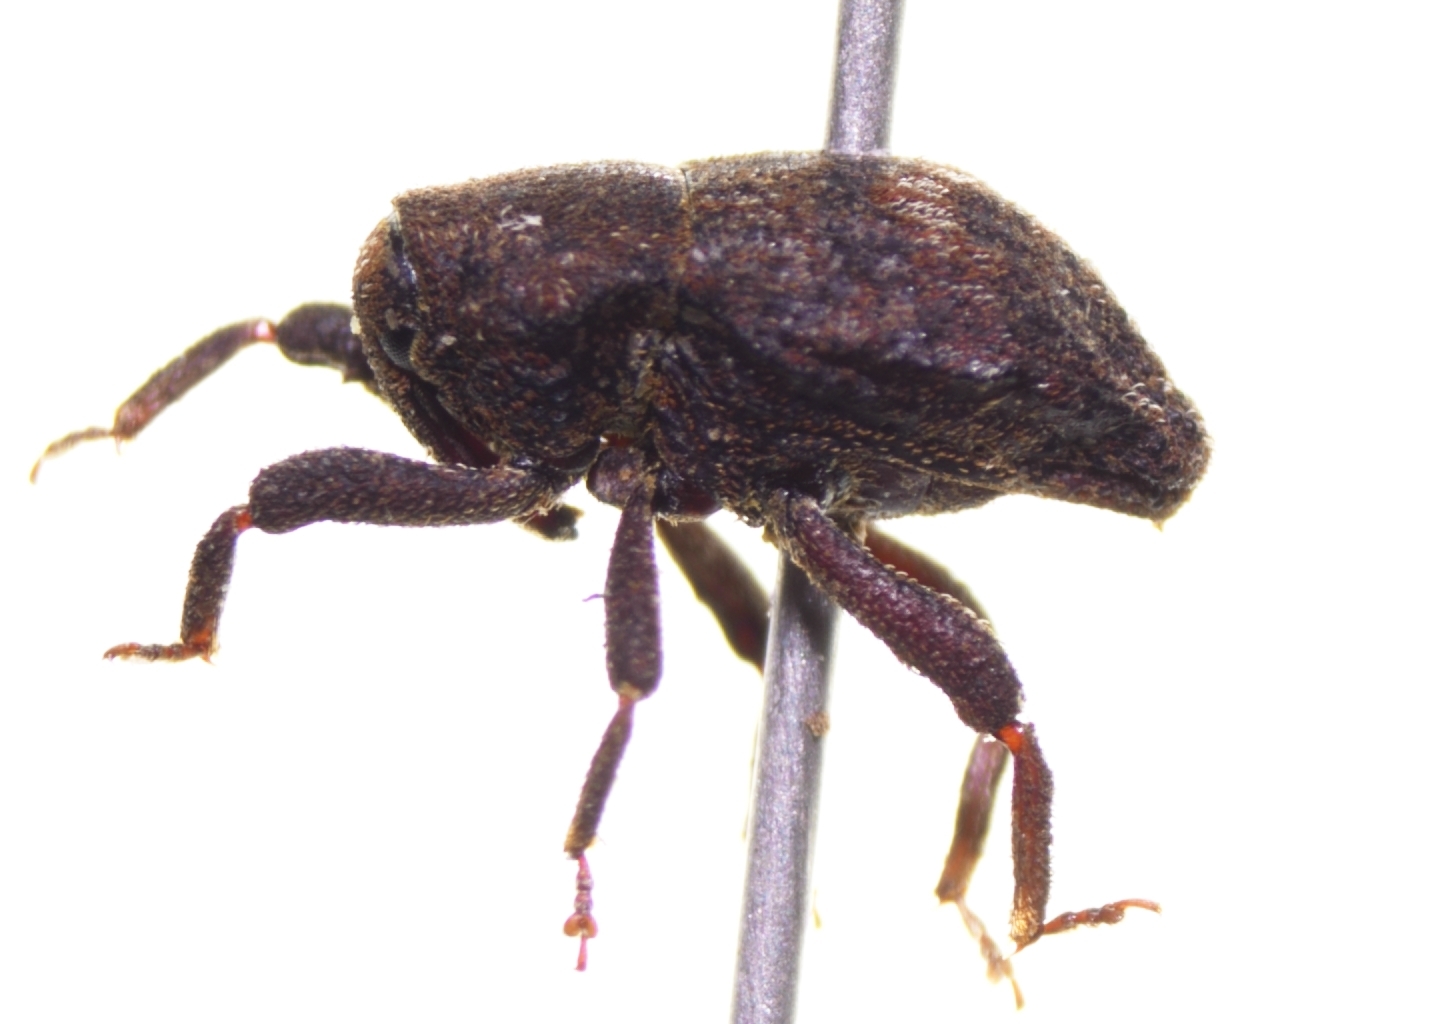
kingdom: Animalia
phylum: Arthropoda
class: Insecta
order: Coleoptera
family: Curculionidae
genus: Elytroteinus
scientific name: Elytroteinus geophilus
